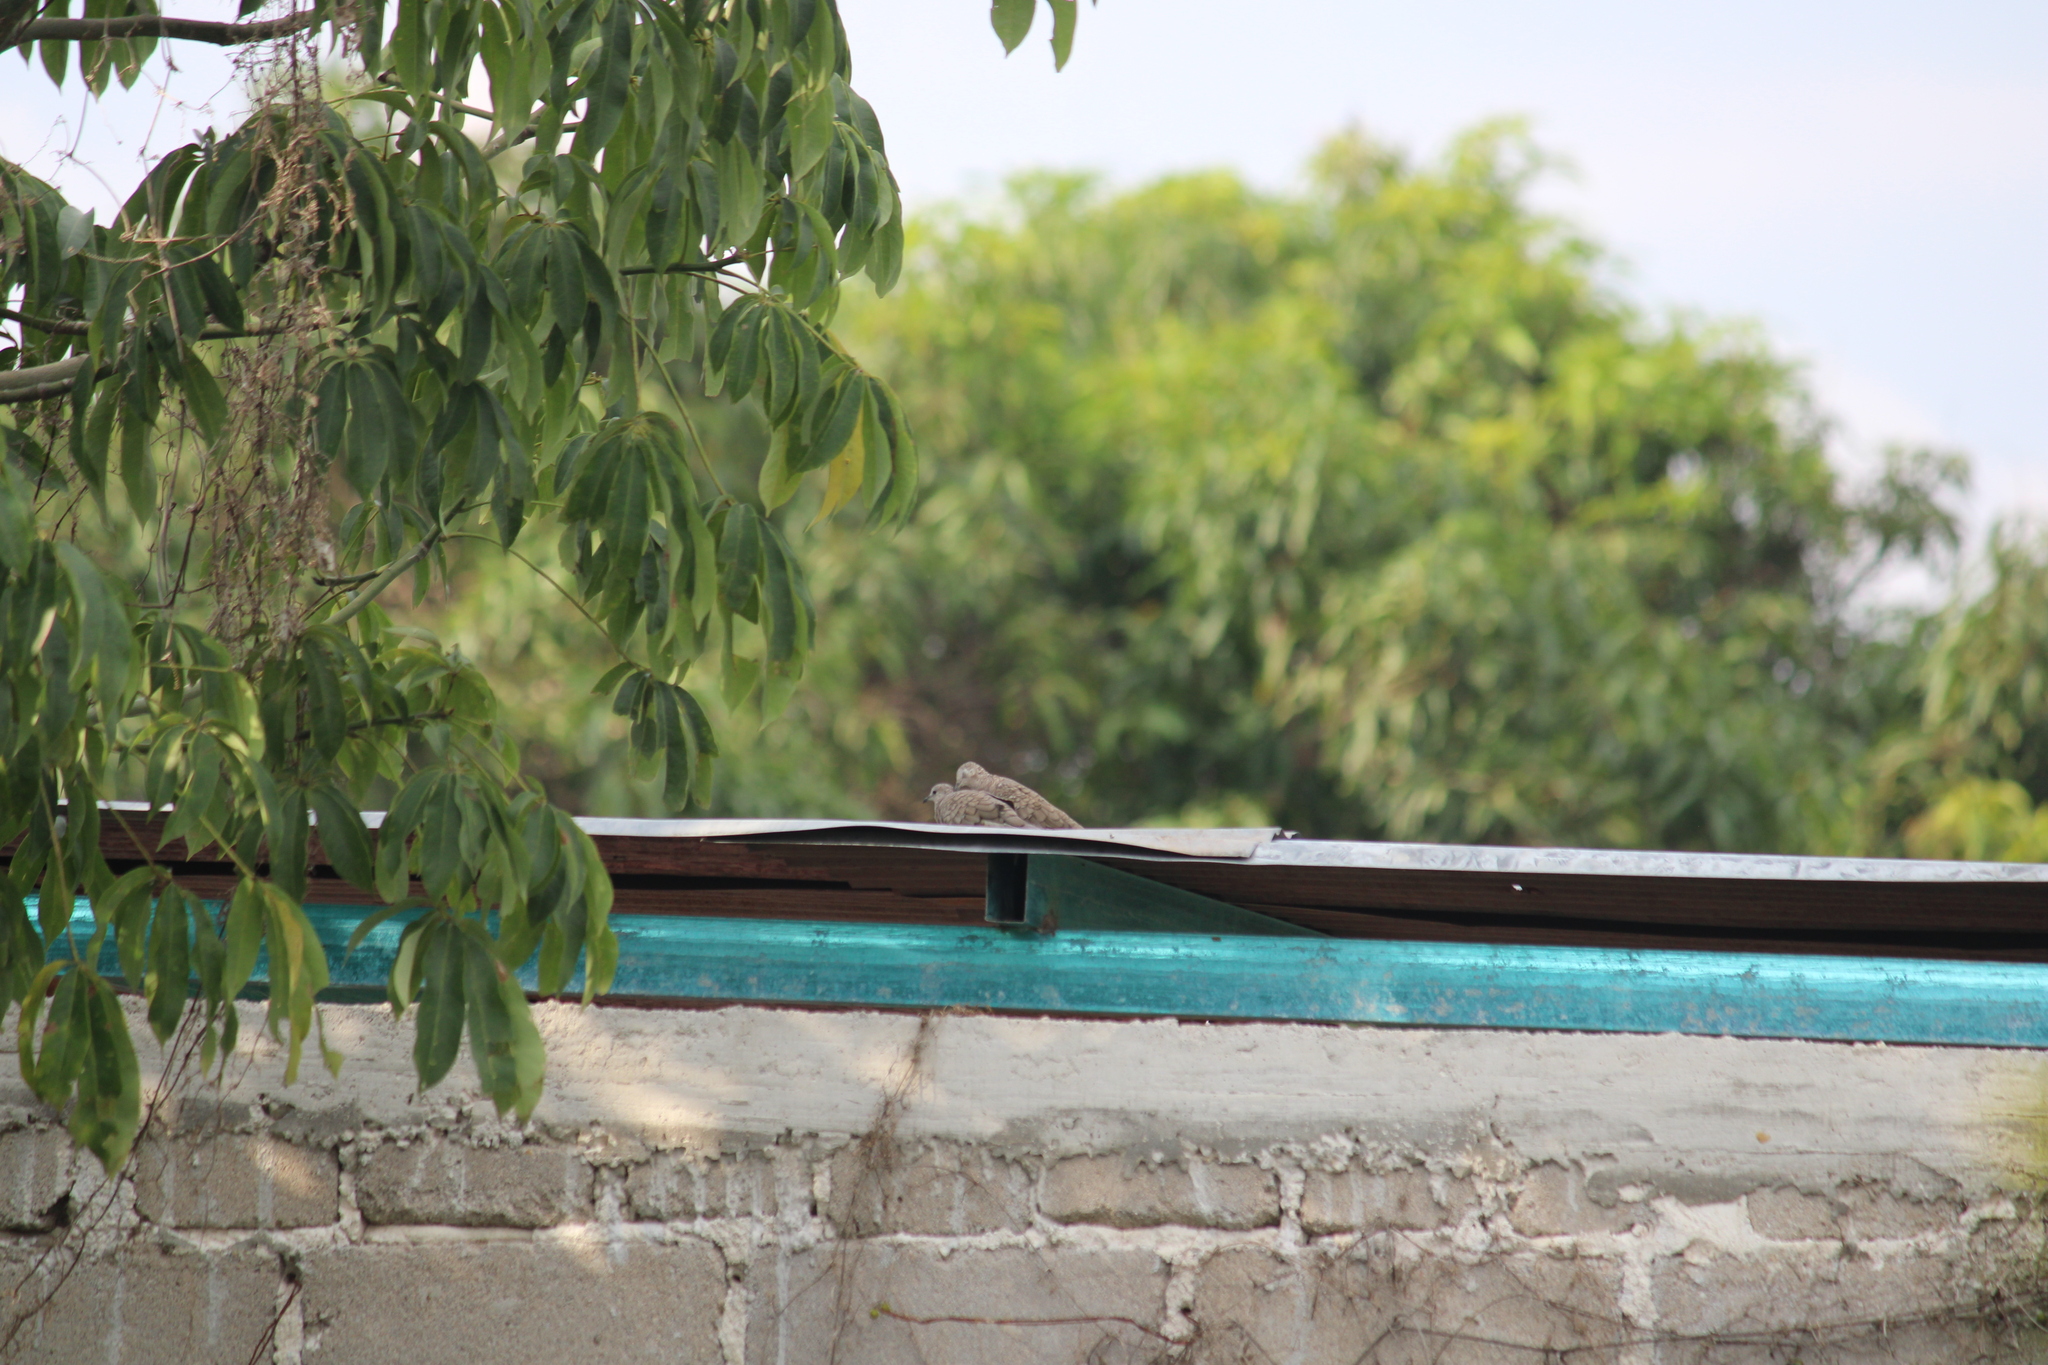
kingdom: Animalia
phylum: Chordata
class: Aves
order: Columbiformes
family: Columbidae
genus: Columbina
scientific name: Columbina inca
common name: Inca dove
